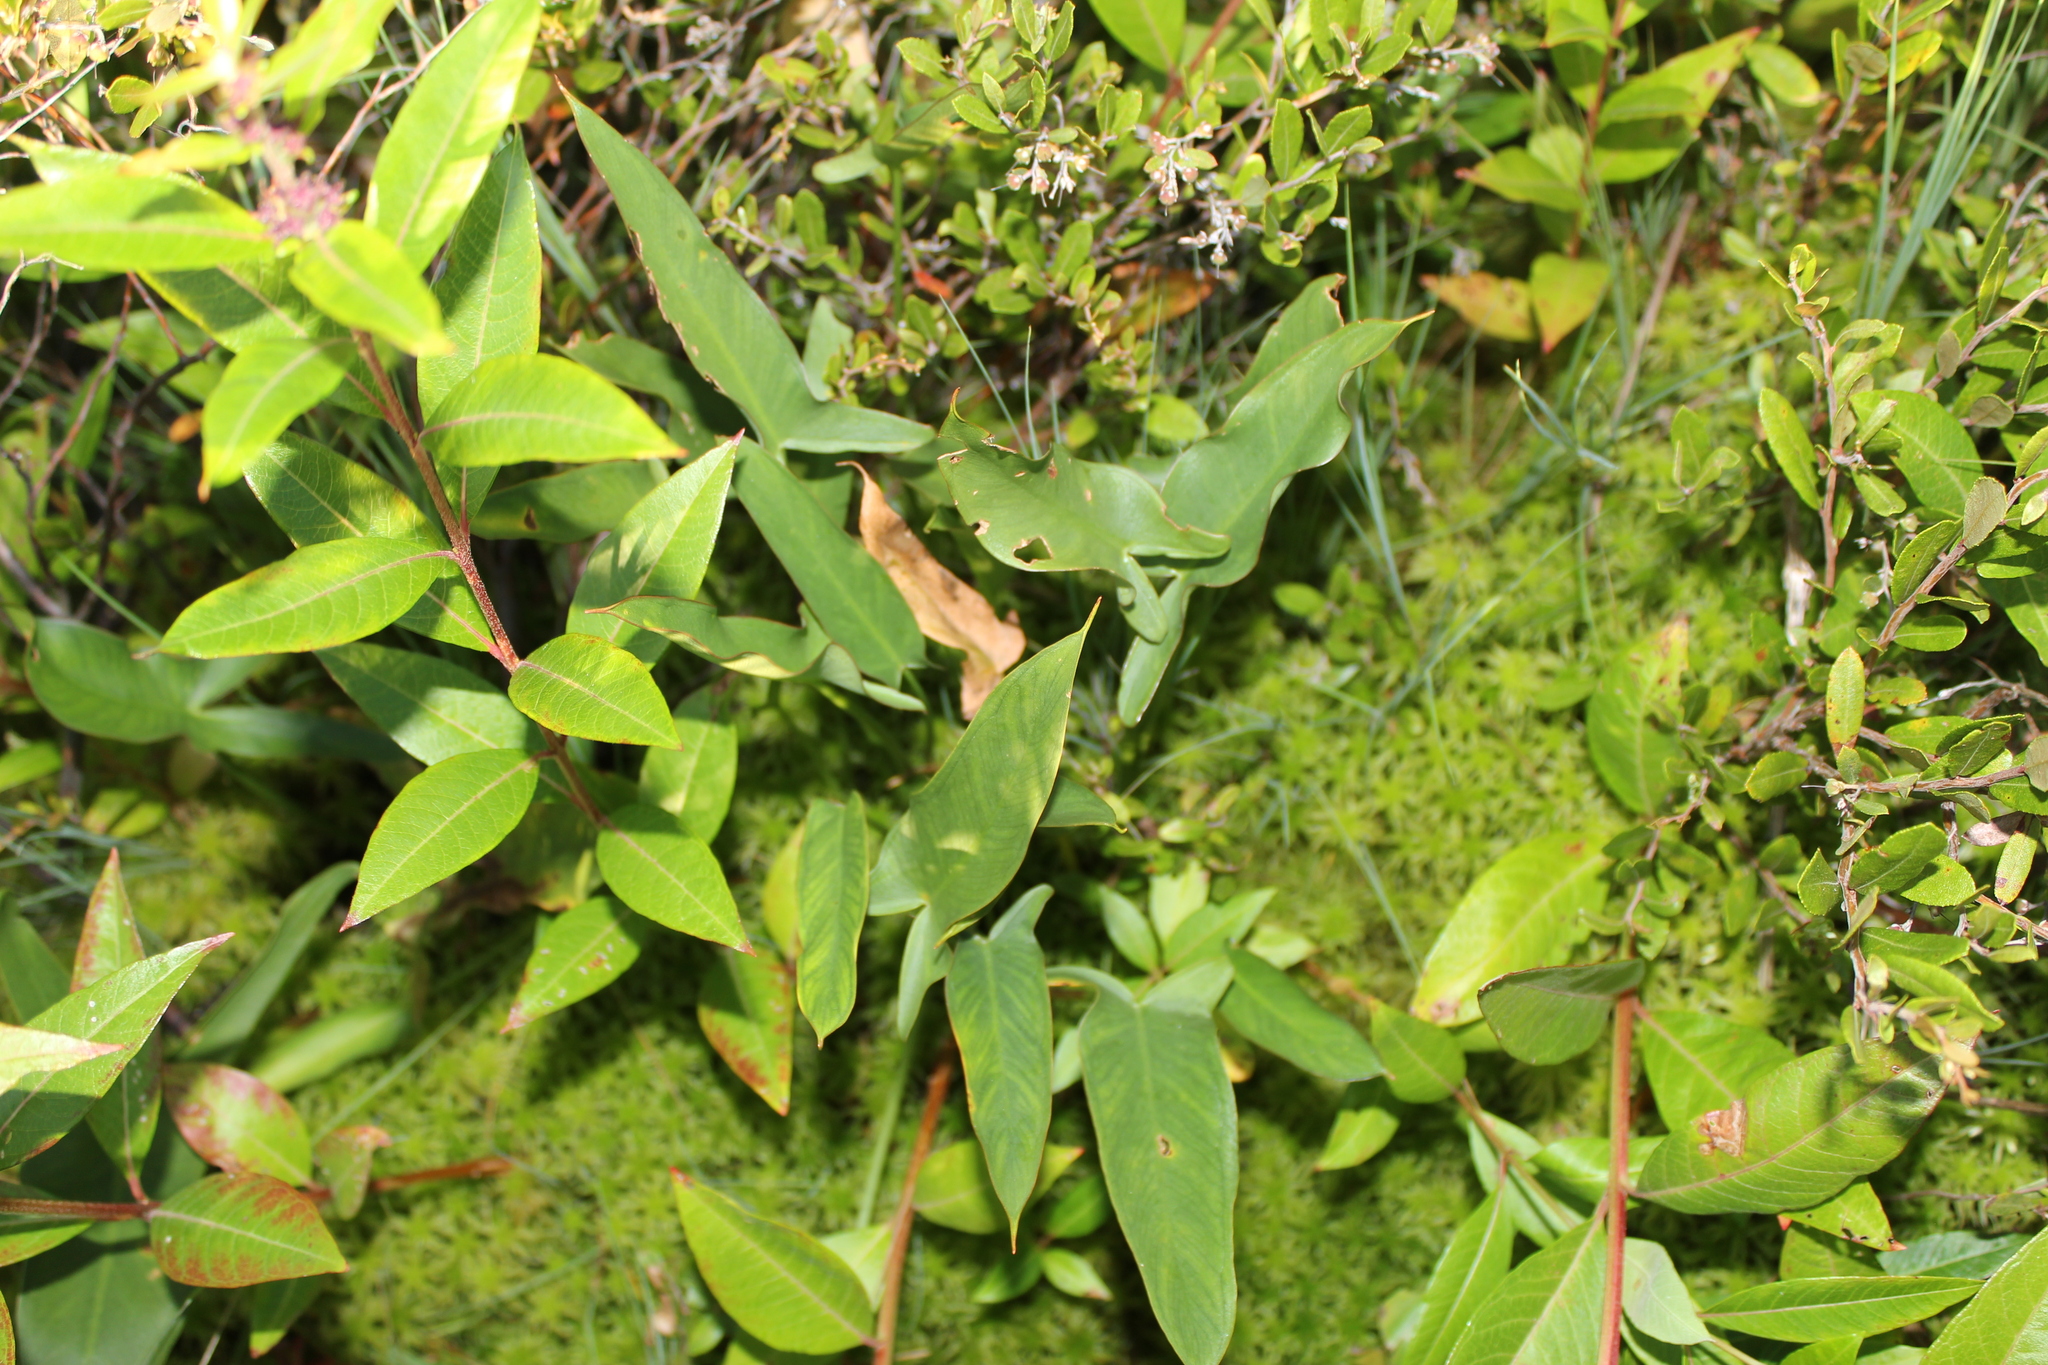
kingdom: Plantae
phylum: Tracheophyta
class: Liliopsida
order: Alismatales
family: Araceae
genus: Peltandra
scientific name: Peltandra virginica
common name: Arrow arum
